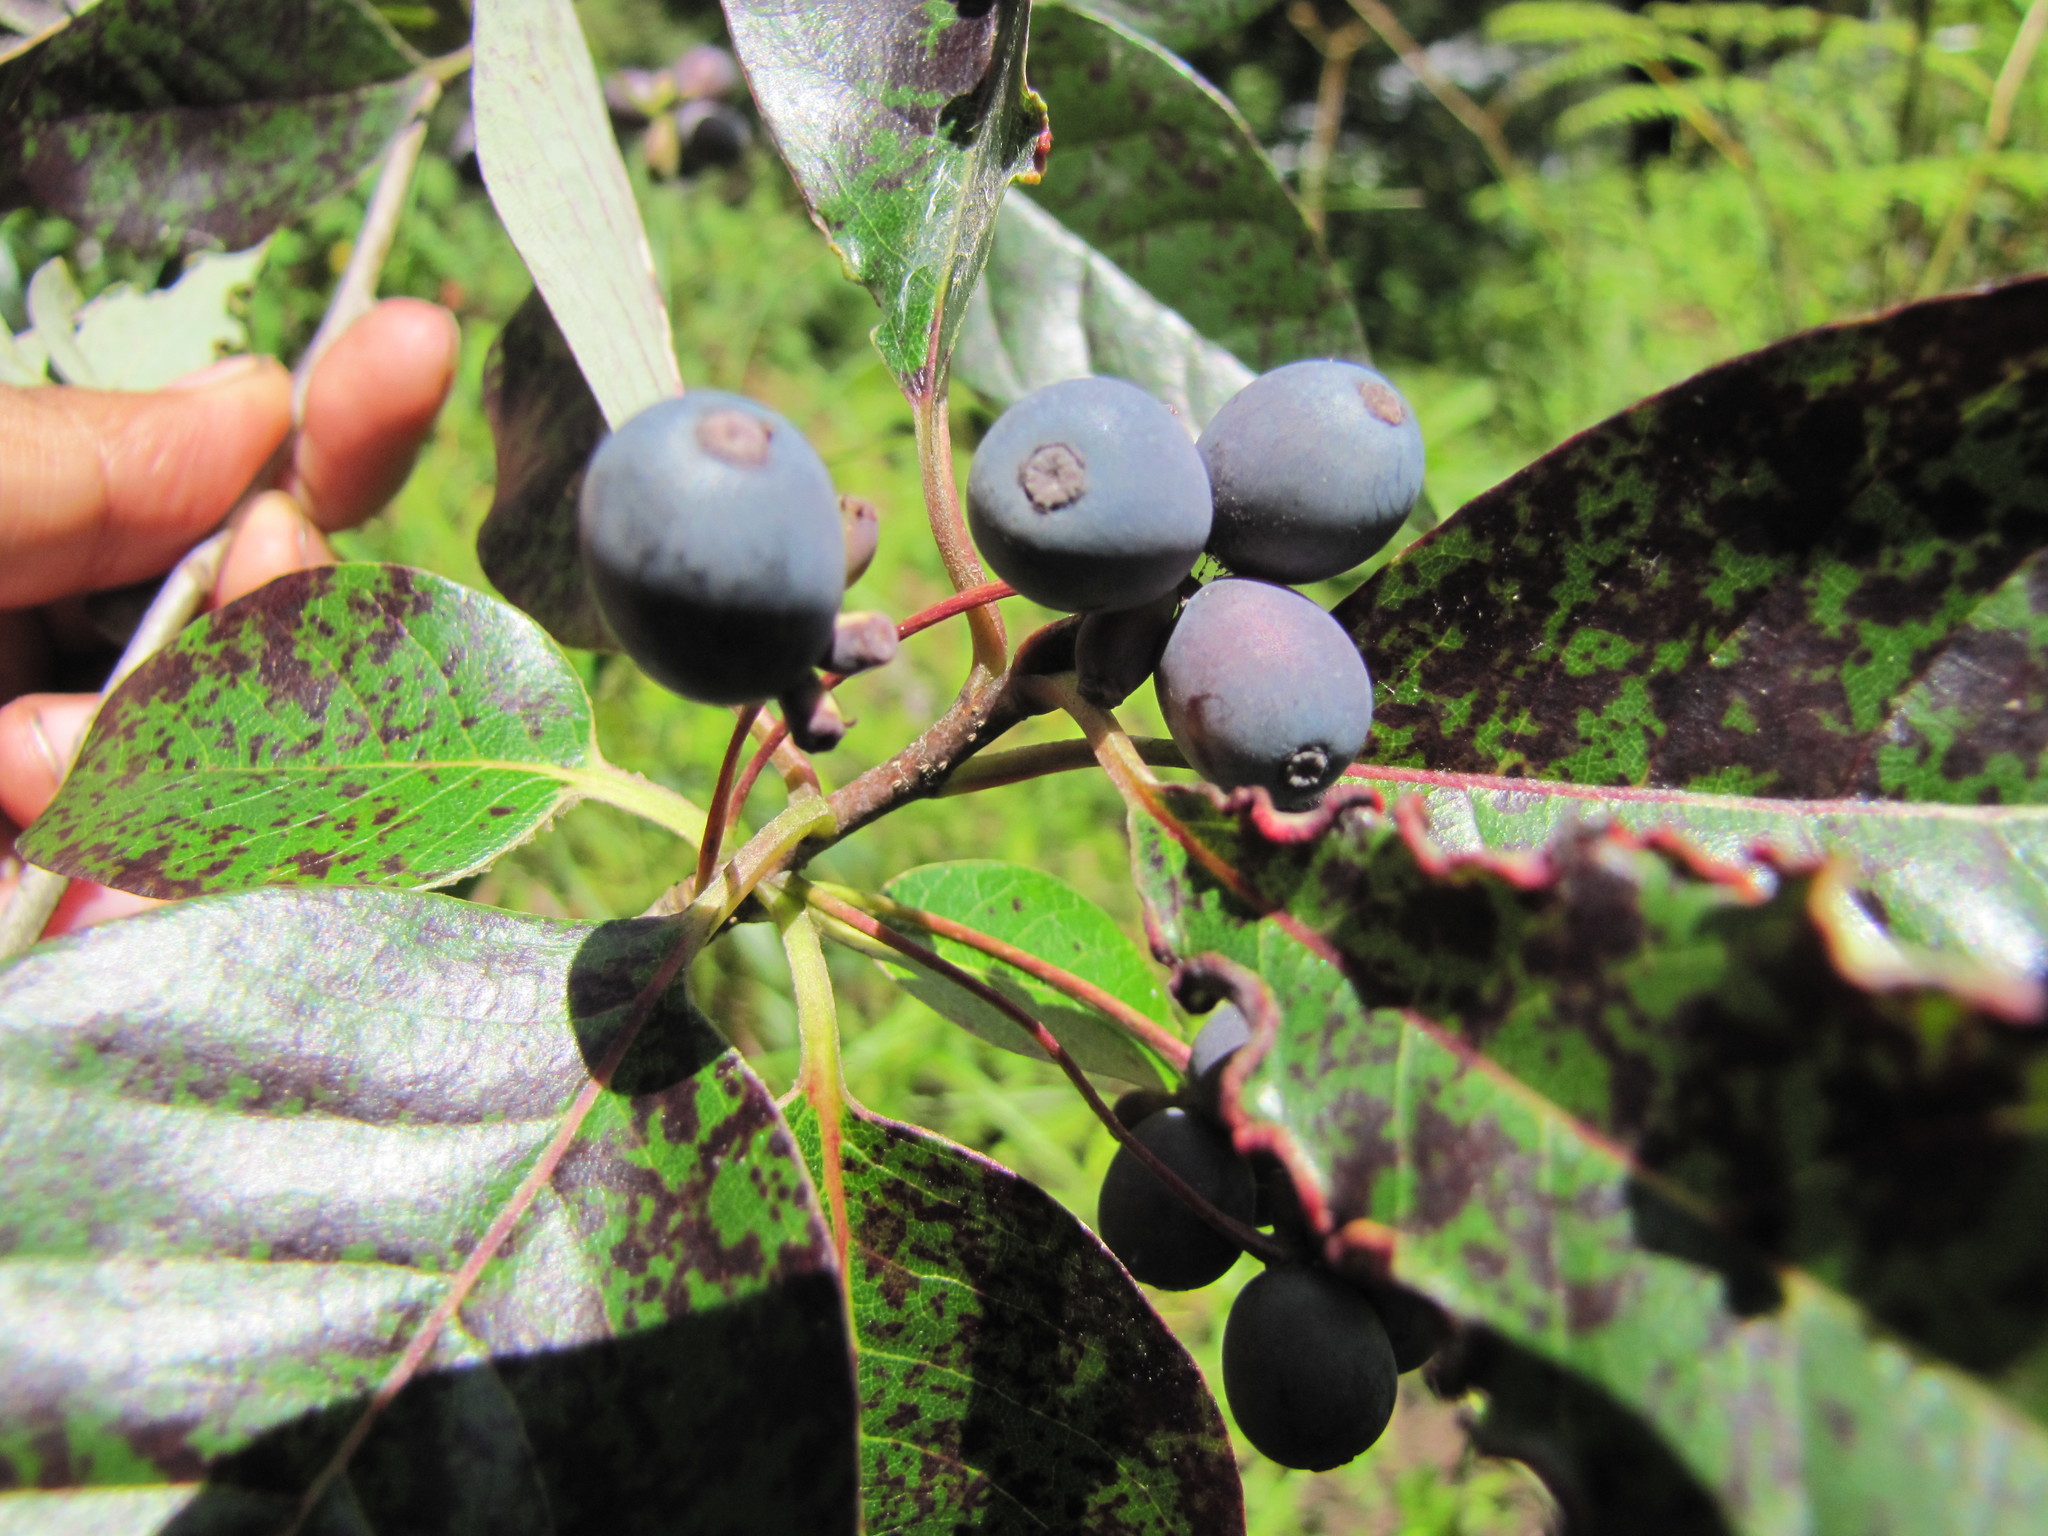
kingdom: Plantae
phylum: Tracheophyta
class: Magnoliopsida
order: Cornales
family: Nyssaceae
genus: Nyssa
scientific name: Nyssa sylvatica
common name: Black tupelo
